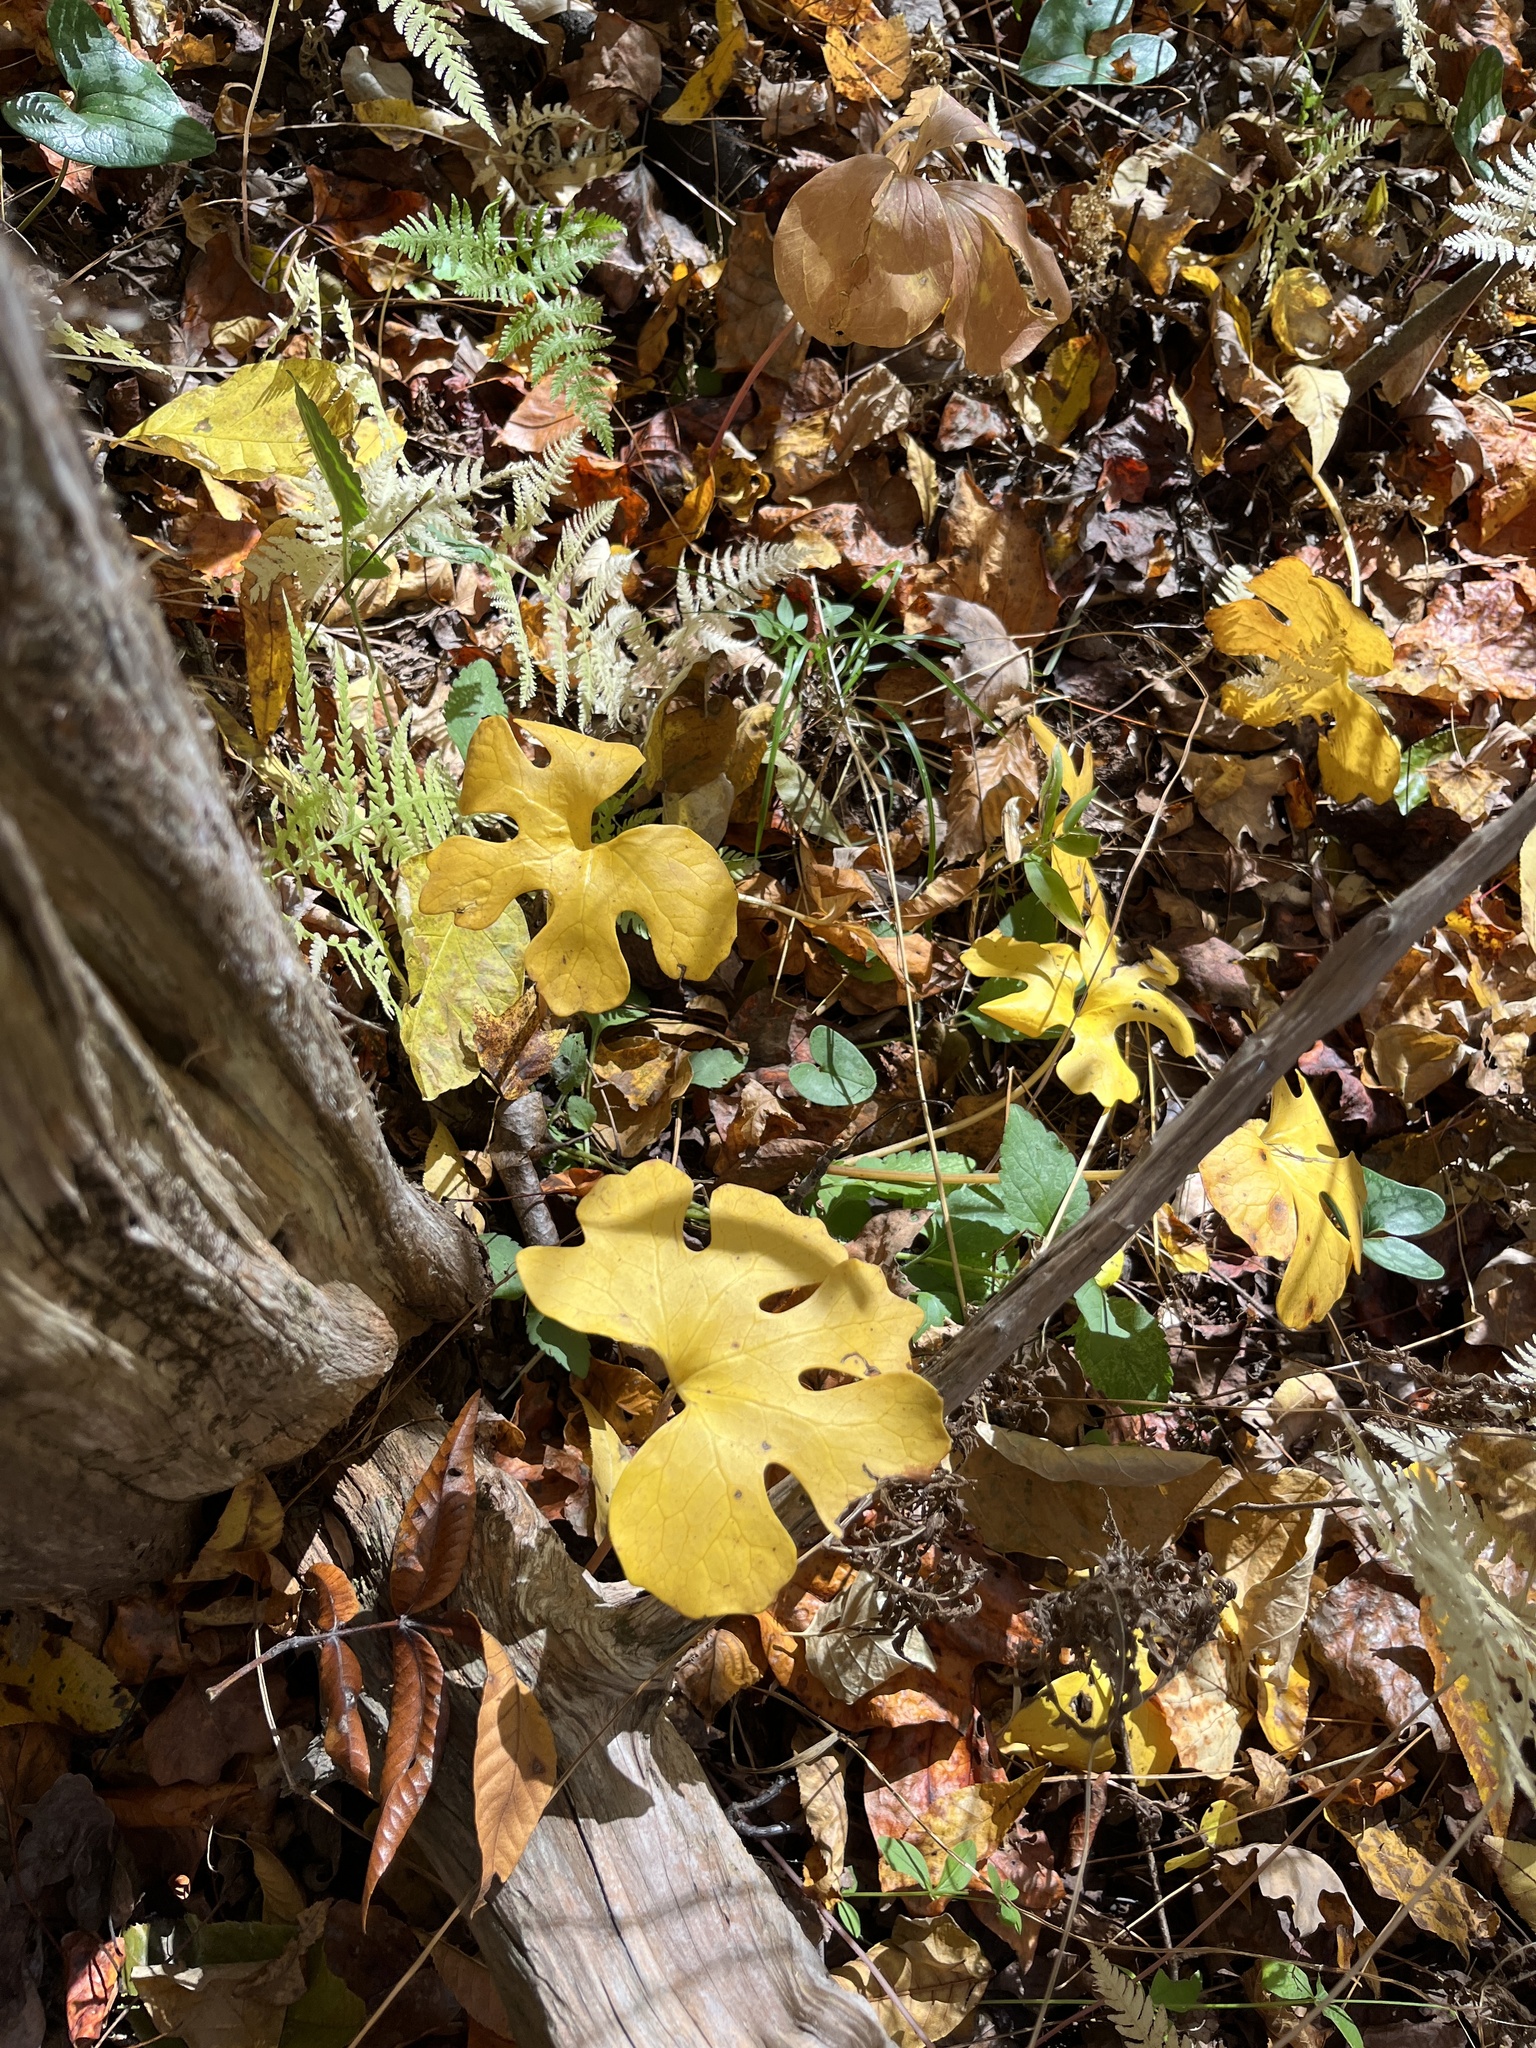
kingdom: Plantae
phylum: Tracheophyta
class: Magnoliopsida
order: Ranunculales
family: Papaveraceae
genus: Sanguinaria
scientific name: Sanguinaria canadensis
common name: Bloodroot
